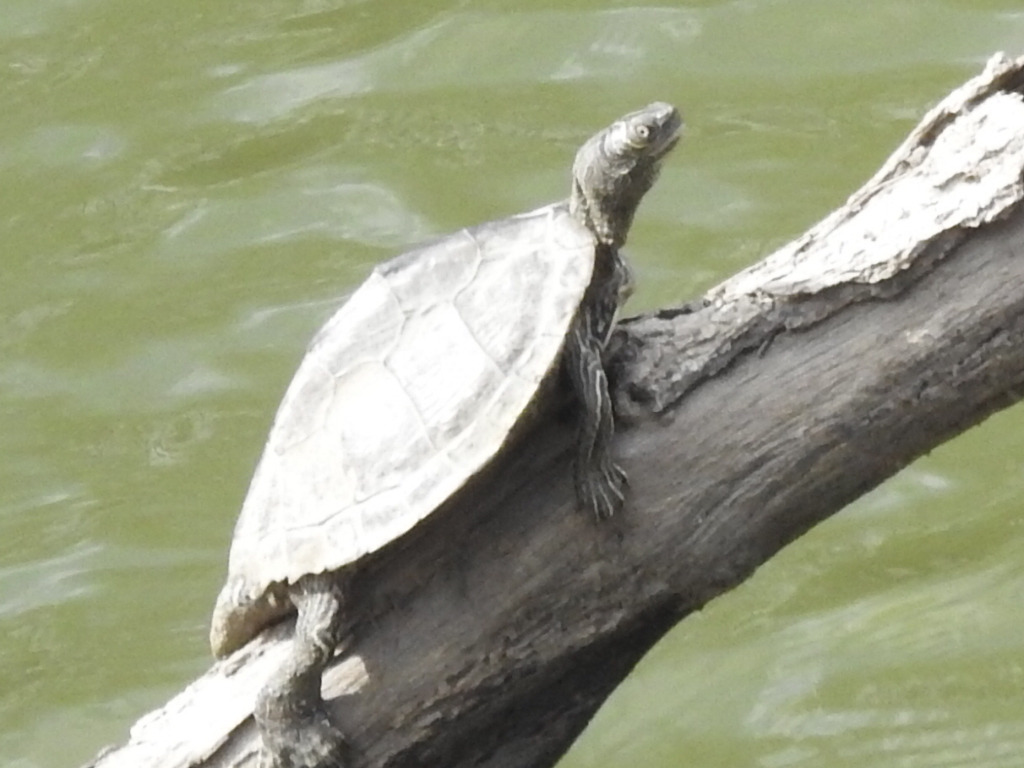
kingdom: Animalia
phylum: Chordata
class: Testudines
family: Emydidae
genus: Graptemys
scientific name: Graptemys pseudogeographica
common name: False map turtle
